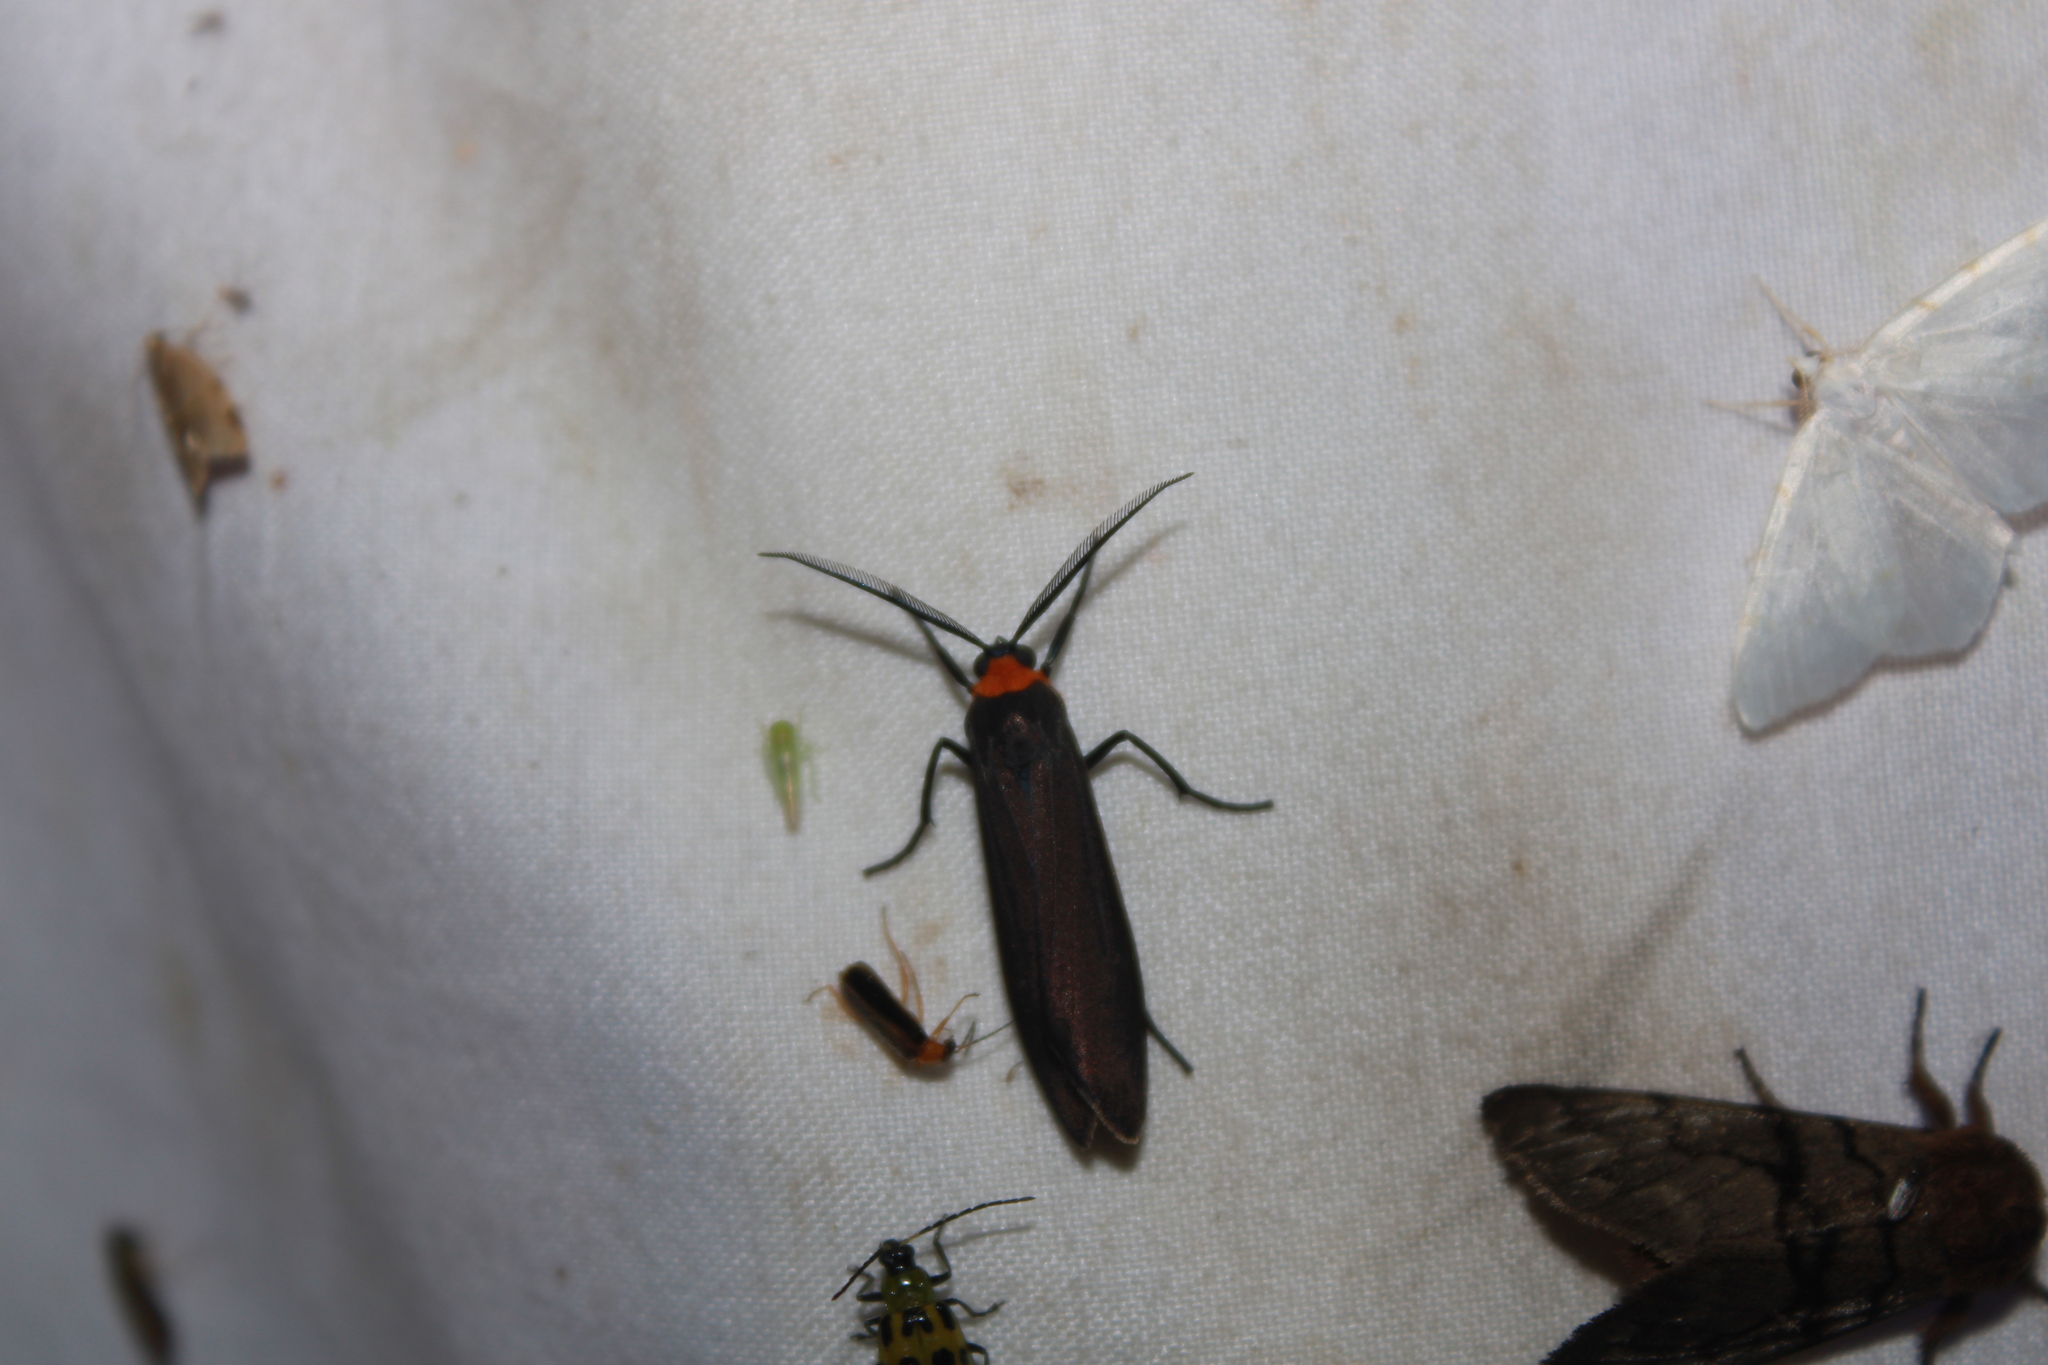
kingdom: Animalia
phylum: Arthropoda
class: Insecta
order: Lepidoptera
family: Erebidae
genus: Cisseps
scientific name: Cisseps fulvicollis
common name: Yellow-collared scape moth
